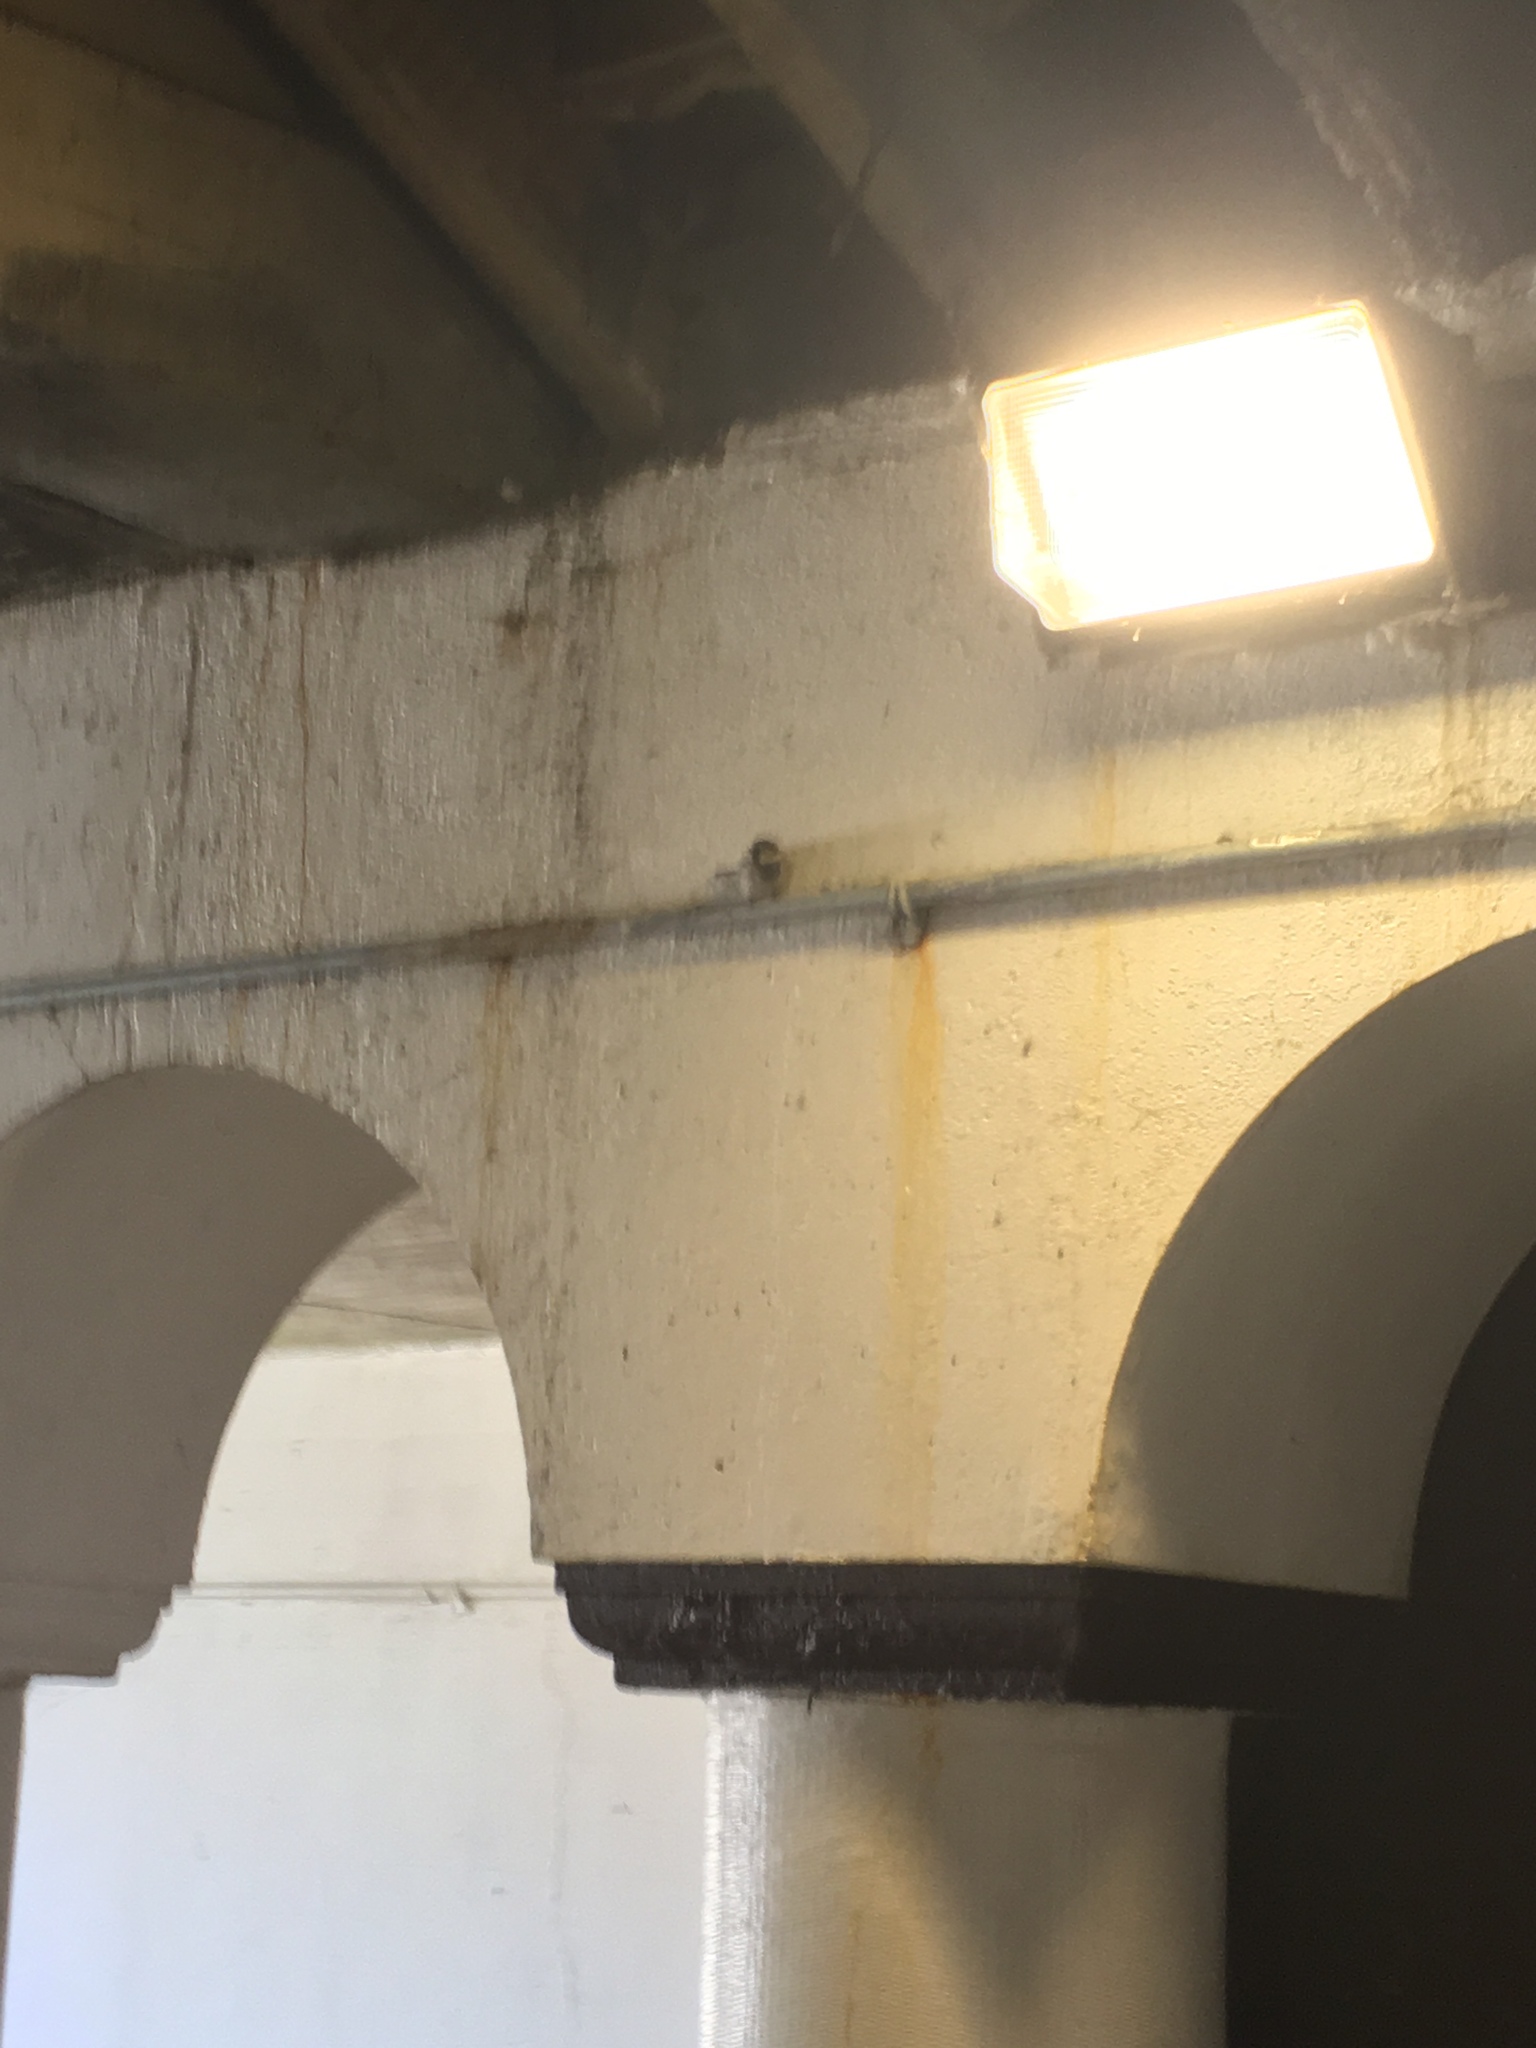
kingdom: Animalia
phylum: Chordata
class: Aves
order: Passeriformes
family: Passeridae
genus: Passer
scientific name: Passer domesticus
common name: House sparrow
